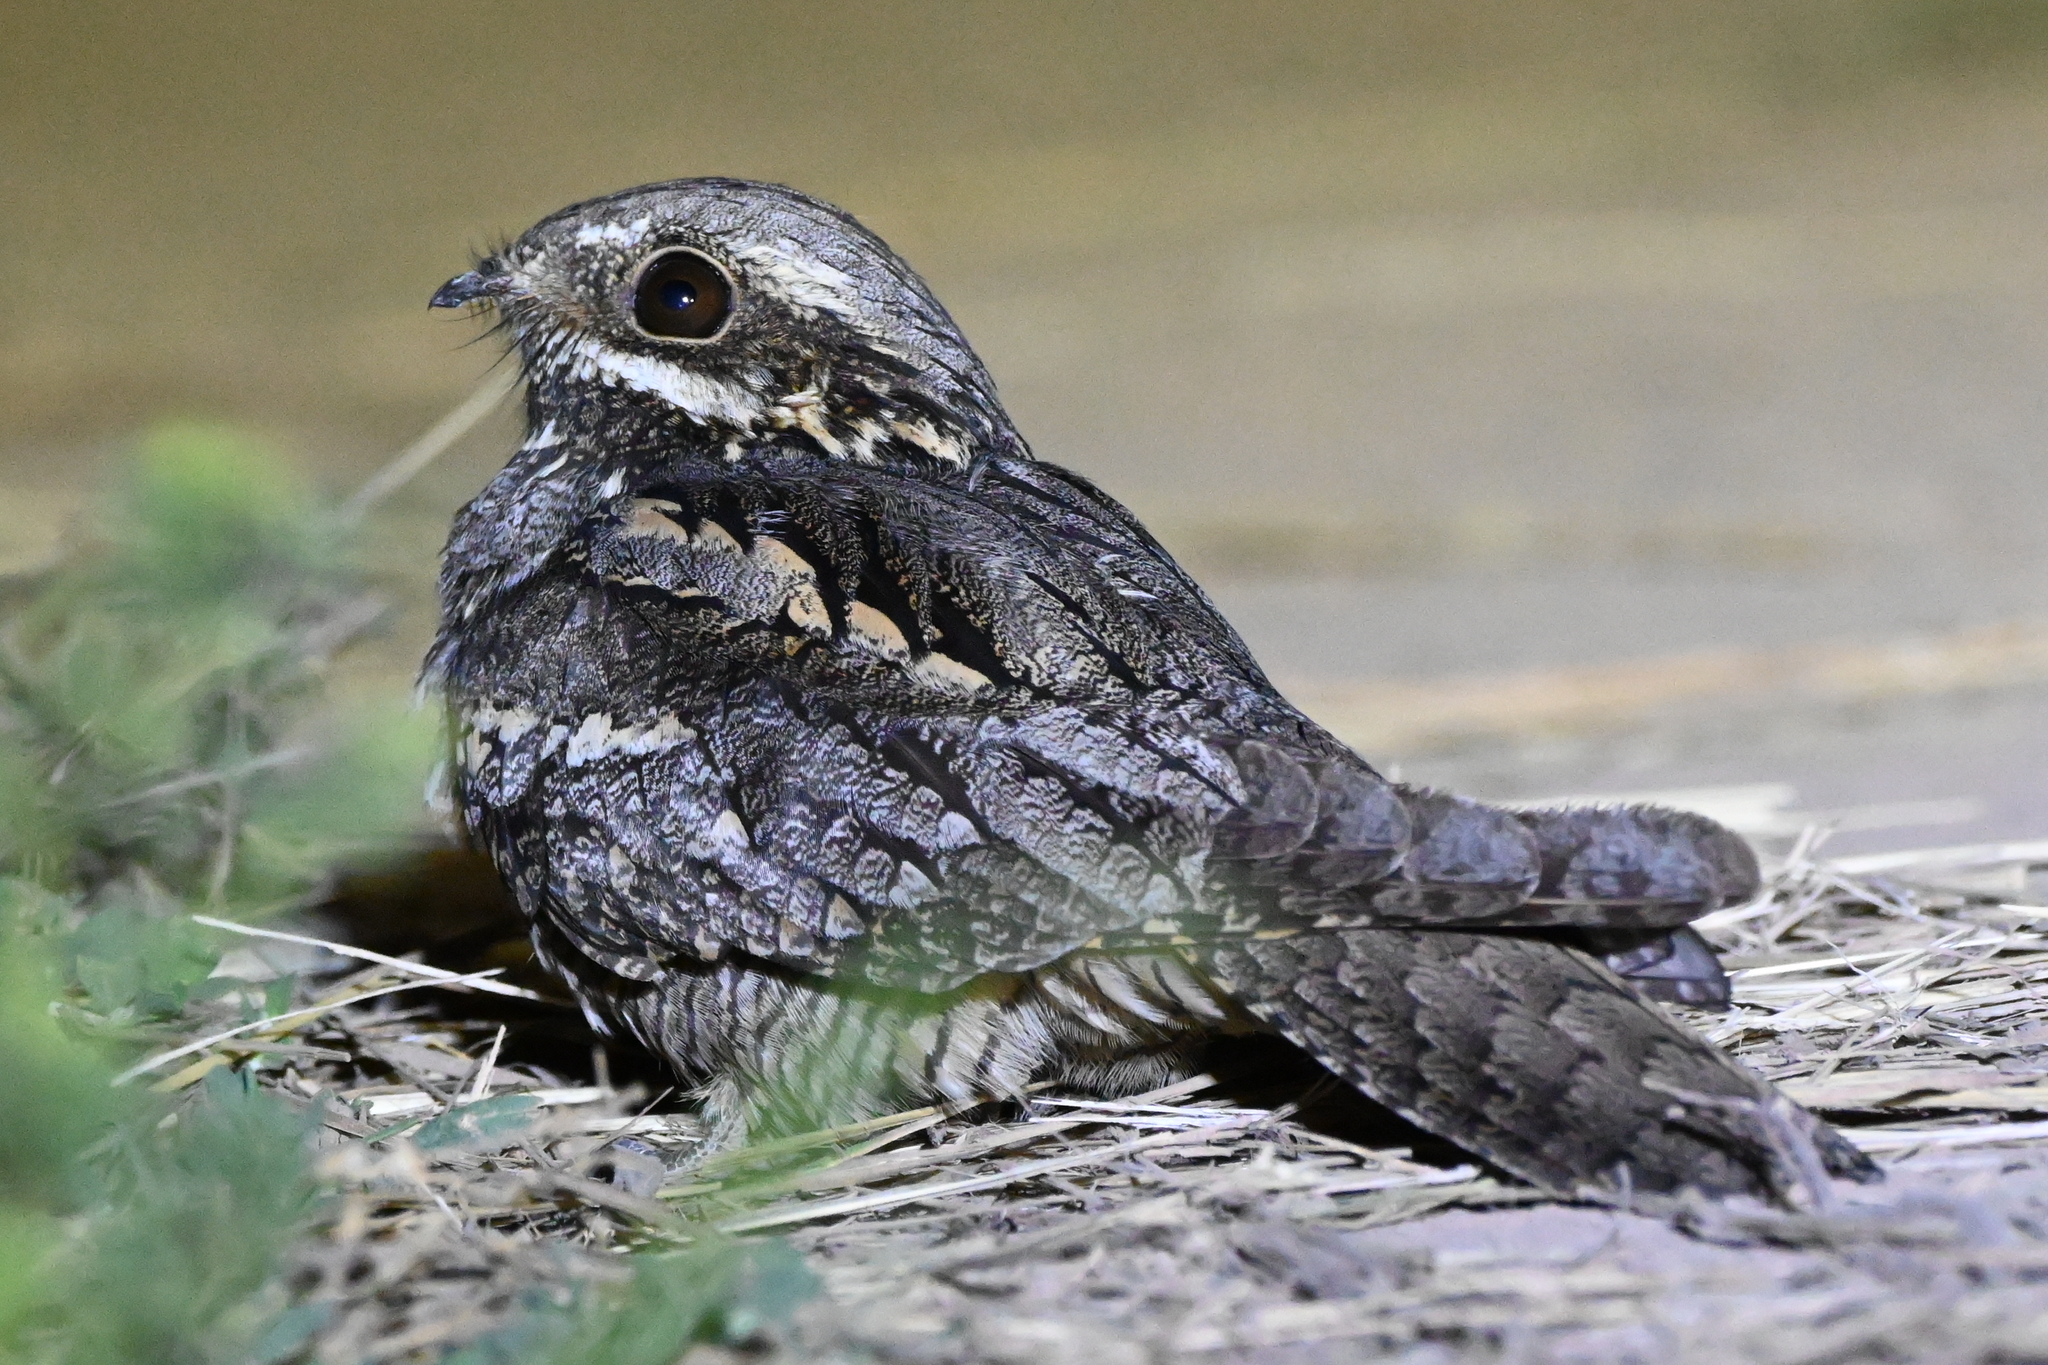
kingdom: Animalia
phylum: Chordata
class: Aves
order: Caprimulgiformes
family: Caprimulgidae
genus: Caprimulgus
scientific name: Caprimulgus europaeus
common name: European nightjar
